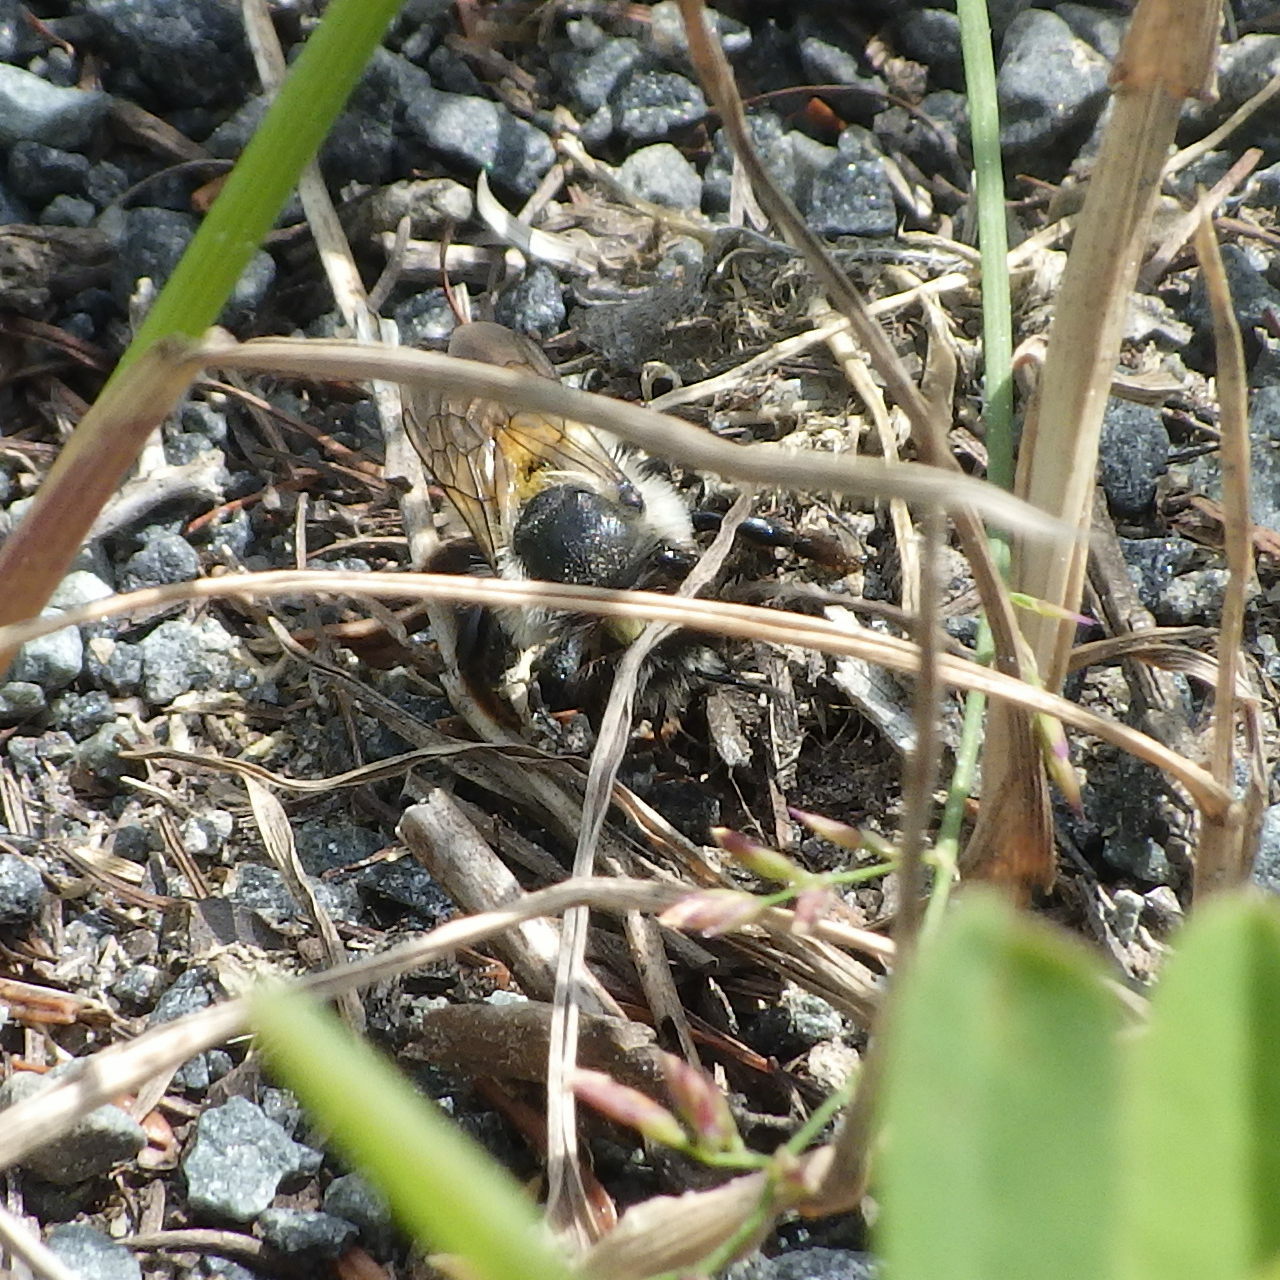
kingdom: Animalia
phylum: Arthropoda
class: Insecta
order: Hymenoptera
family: Megachilidae
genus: Megachile
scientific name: Megachile melanophaea
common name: Black-and-gray leafcutter bee
